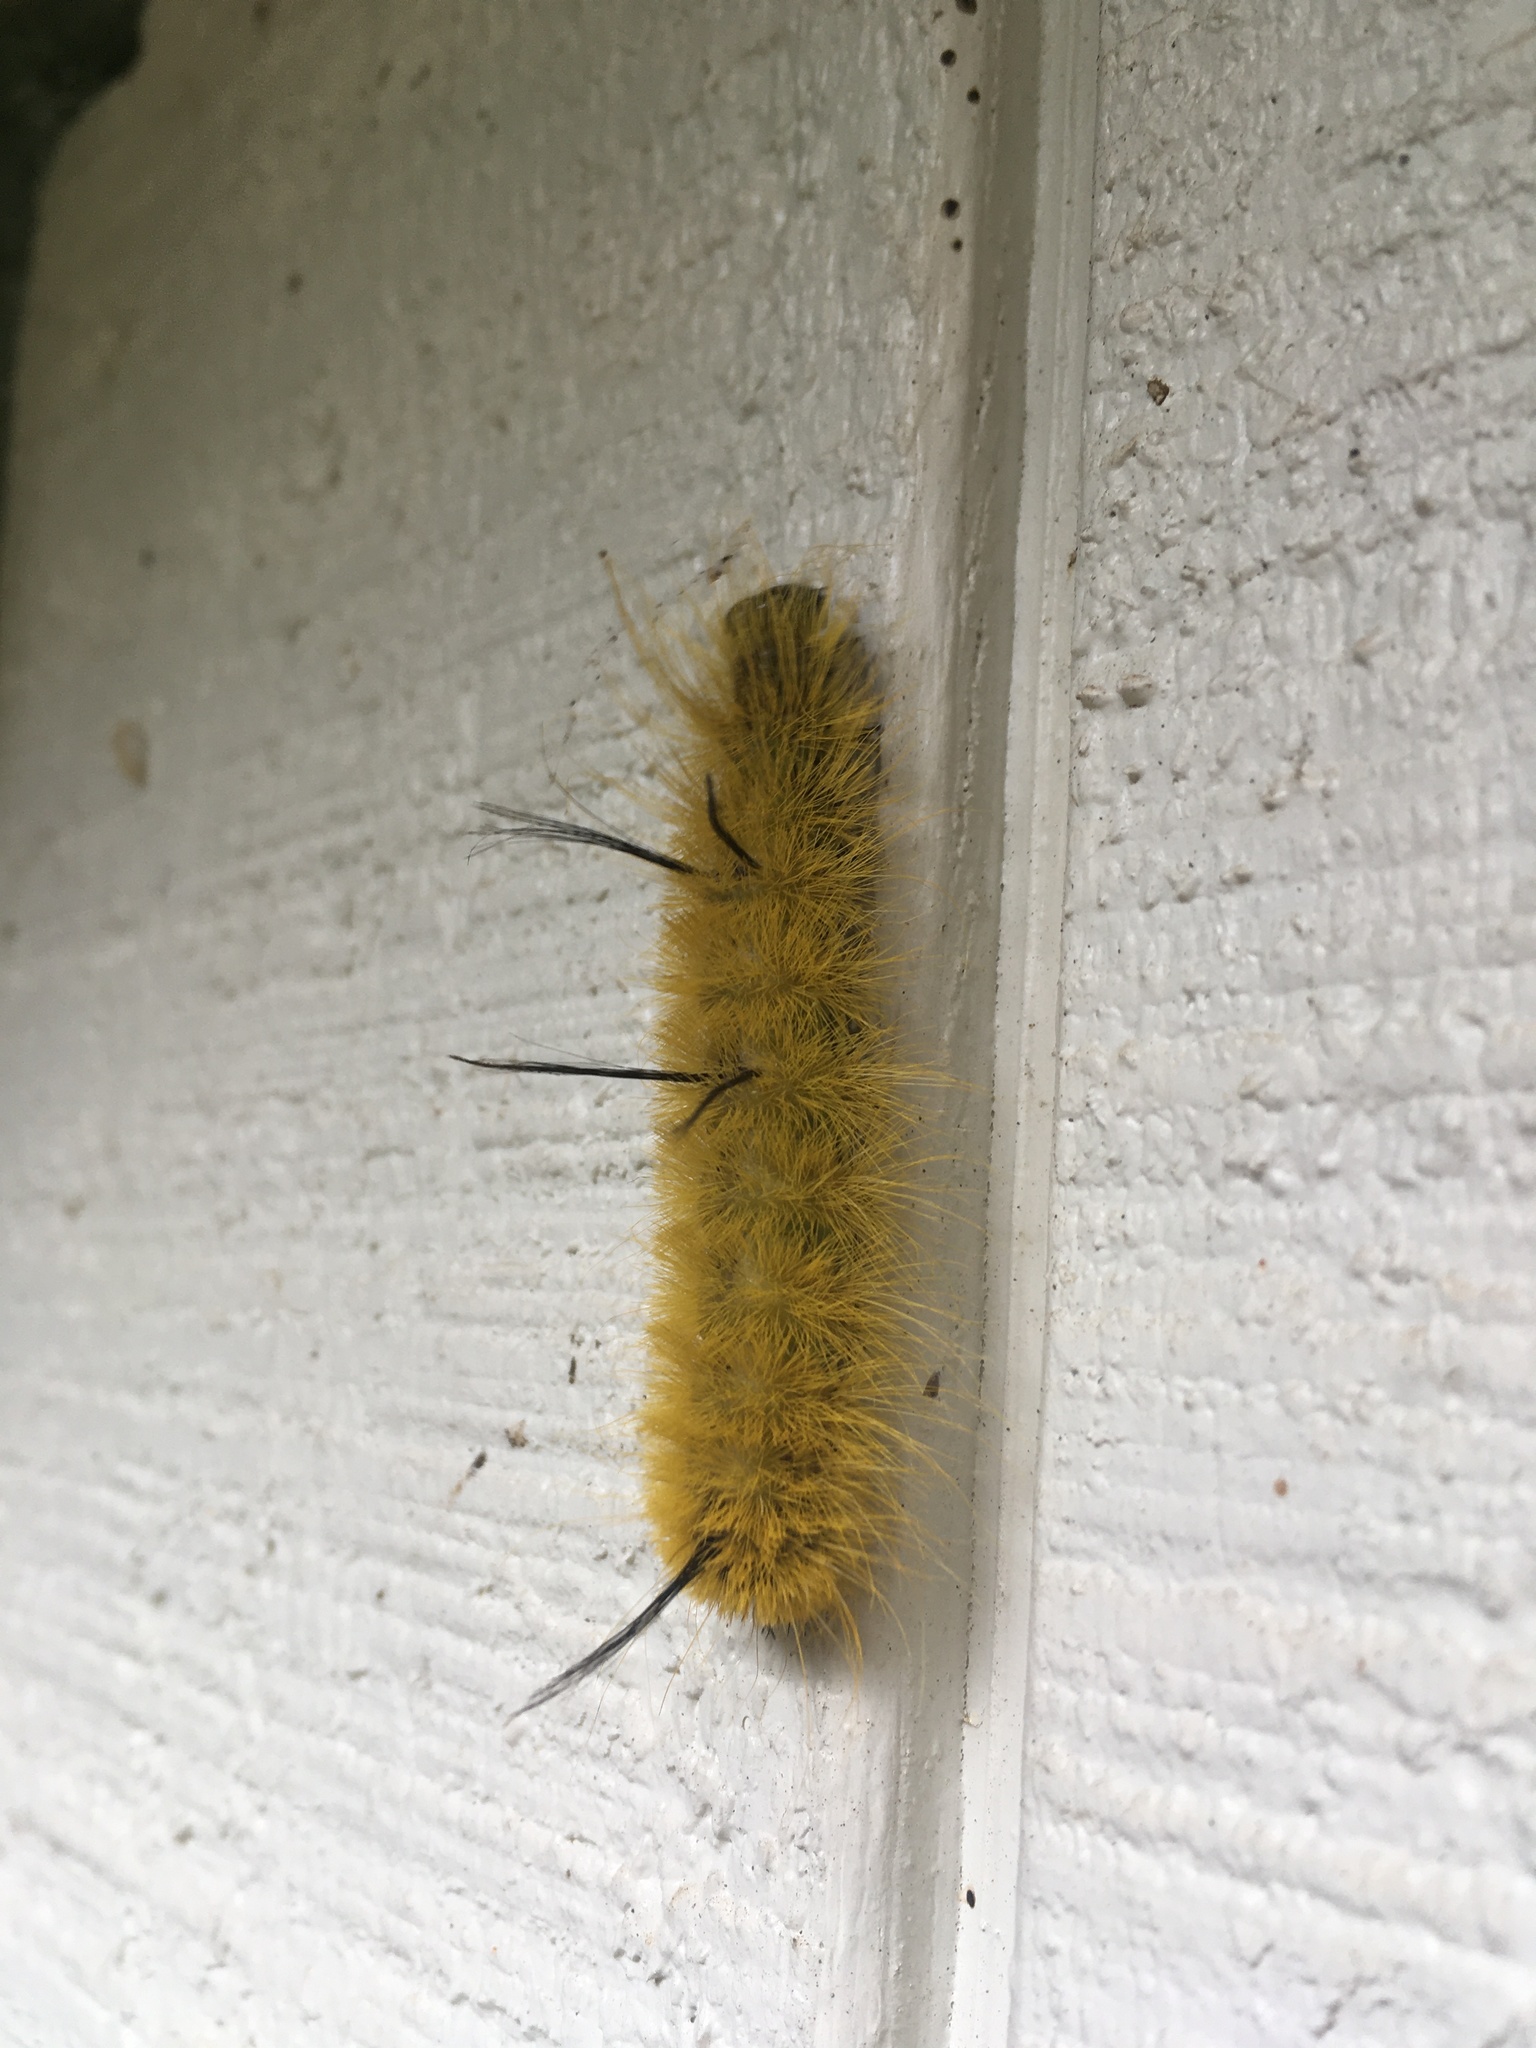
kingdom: Animalia
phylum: Arthropoda
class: Insecta
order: Lepidoptera
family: Noctuidae
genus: Acronicta
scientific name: Acronicta americana
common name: American dagger
